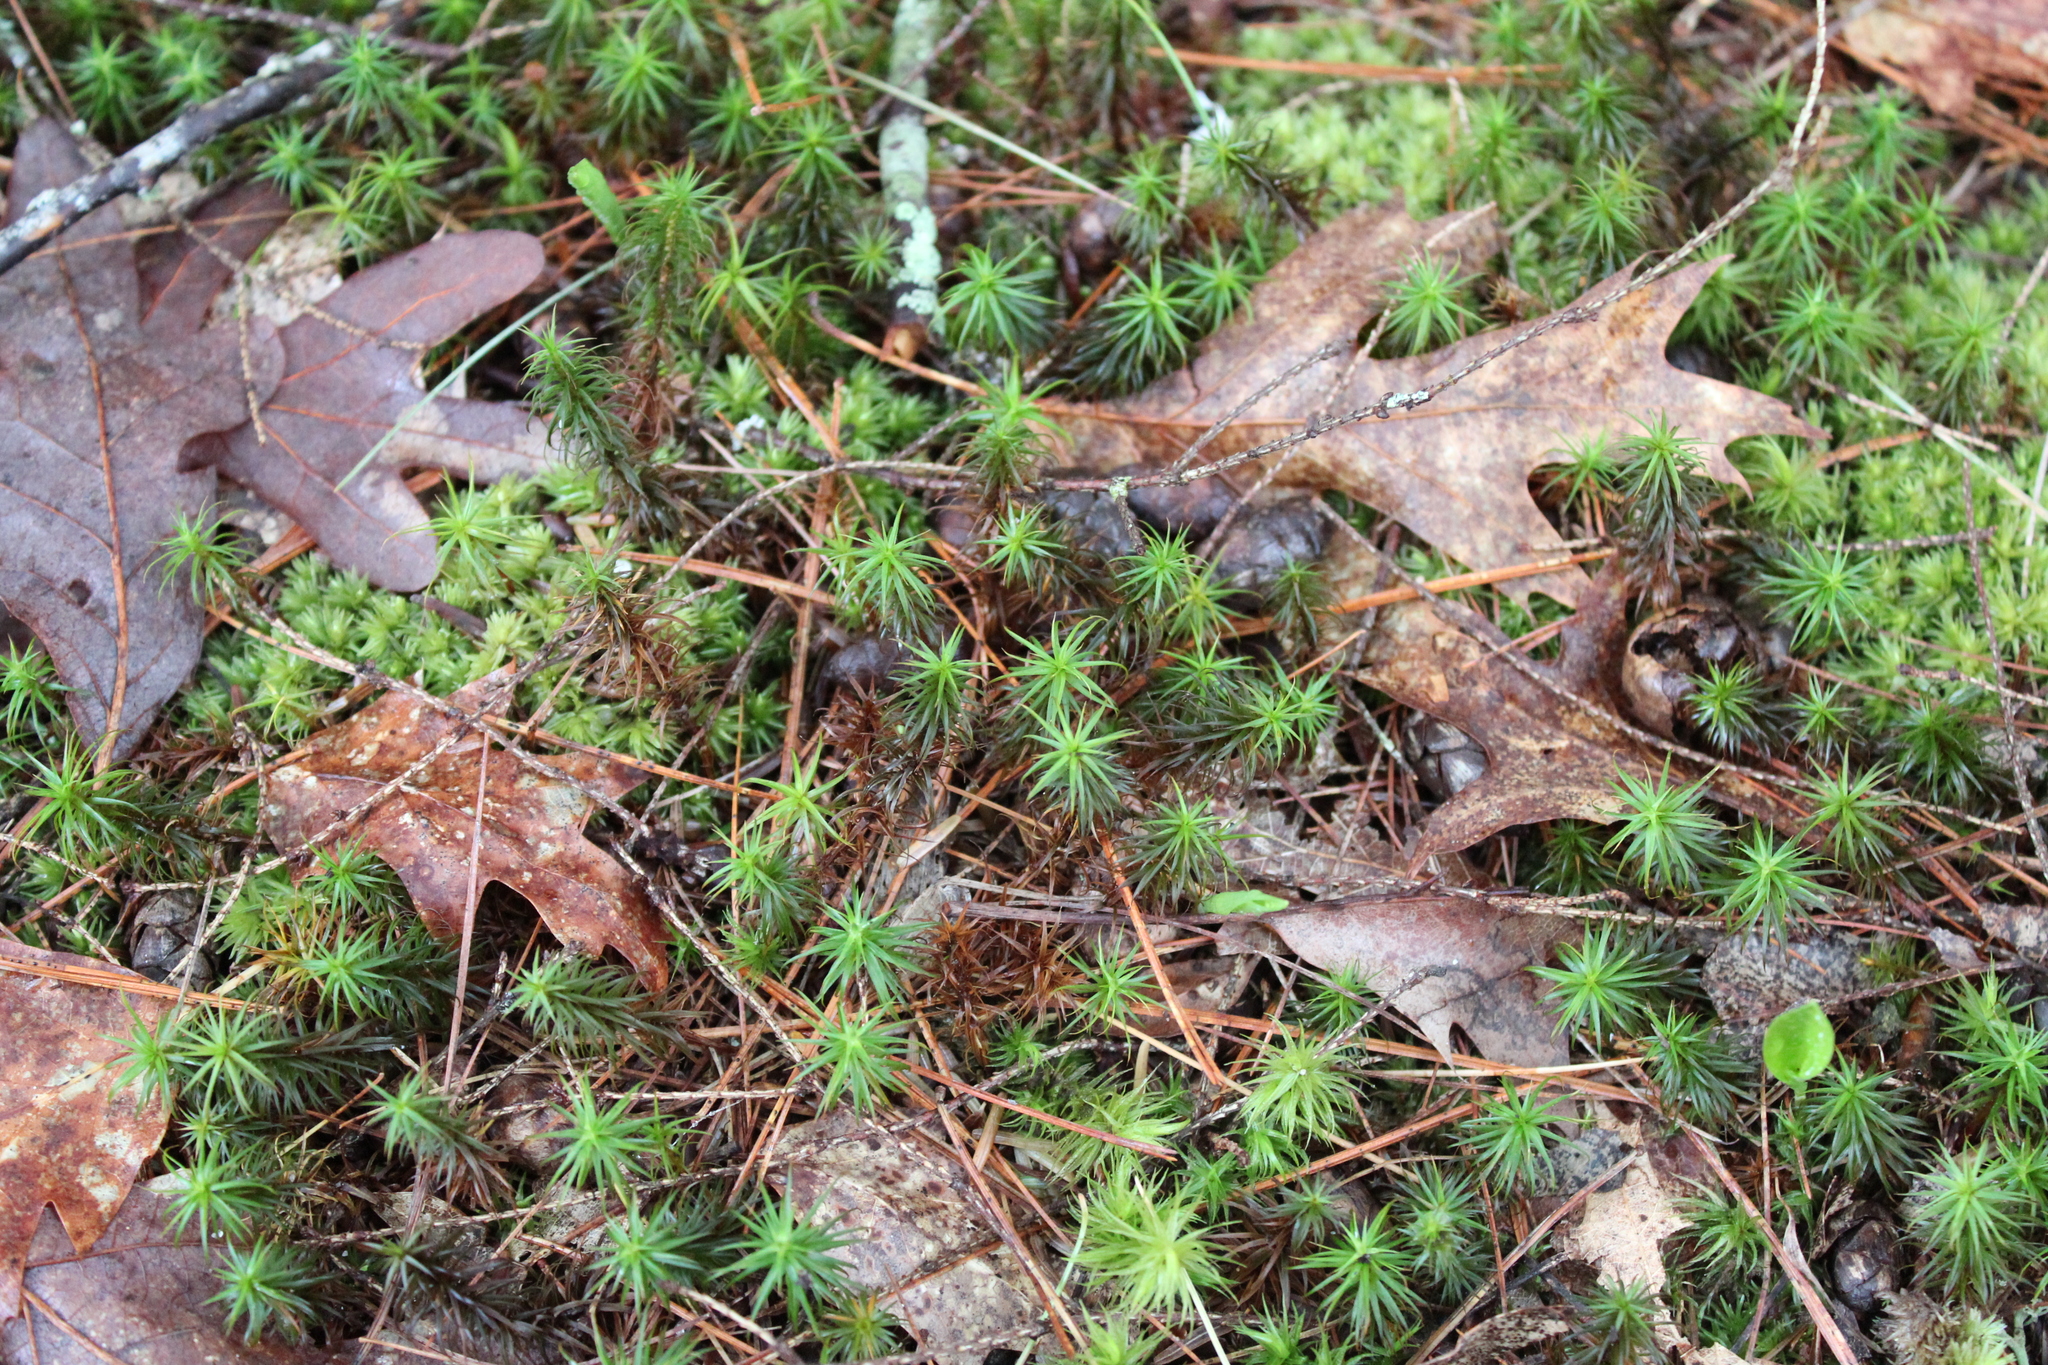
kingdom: Plantae
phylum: Bryophyta
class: Polytrichopsida
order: Polytrichales
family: Polytrichaceae
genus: Polytrichum
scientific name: Polytrichum commune
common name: Common haircap
